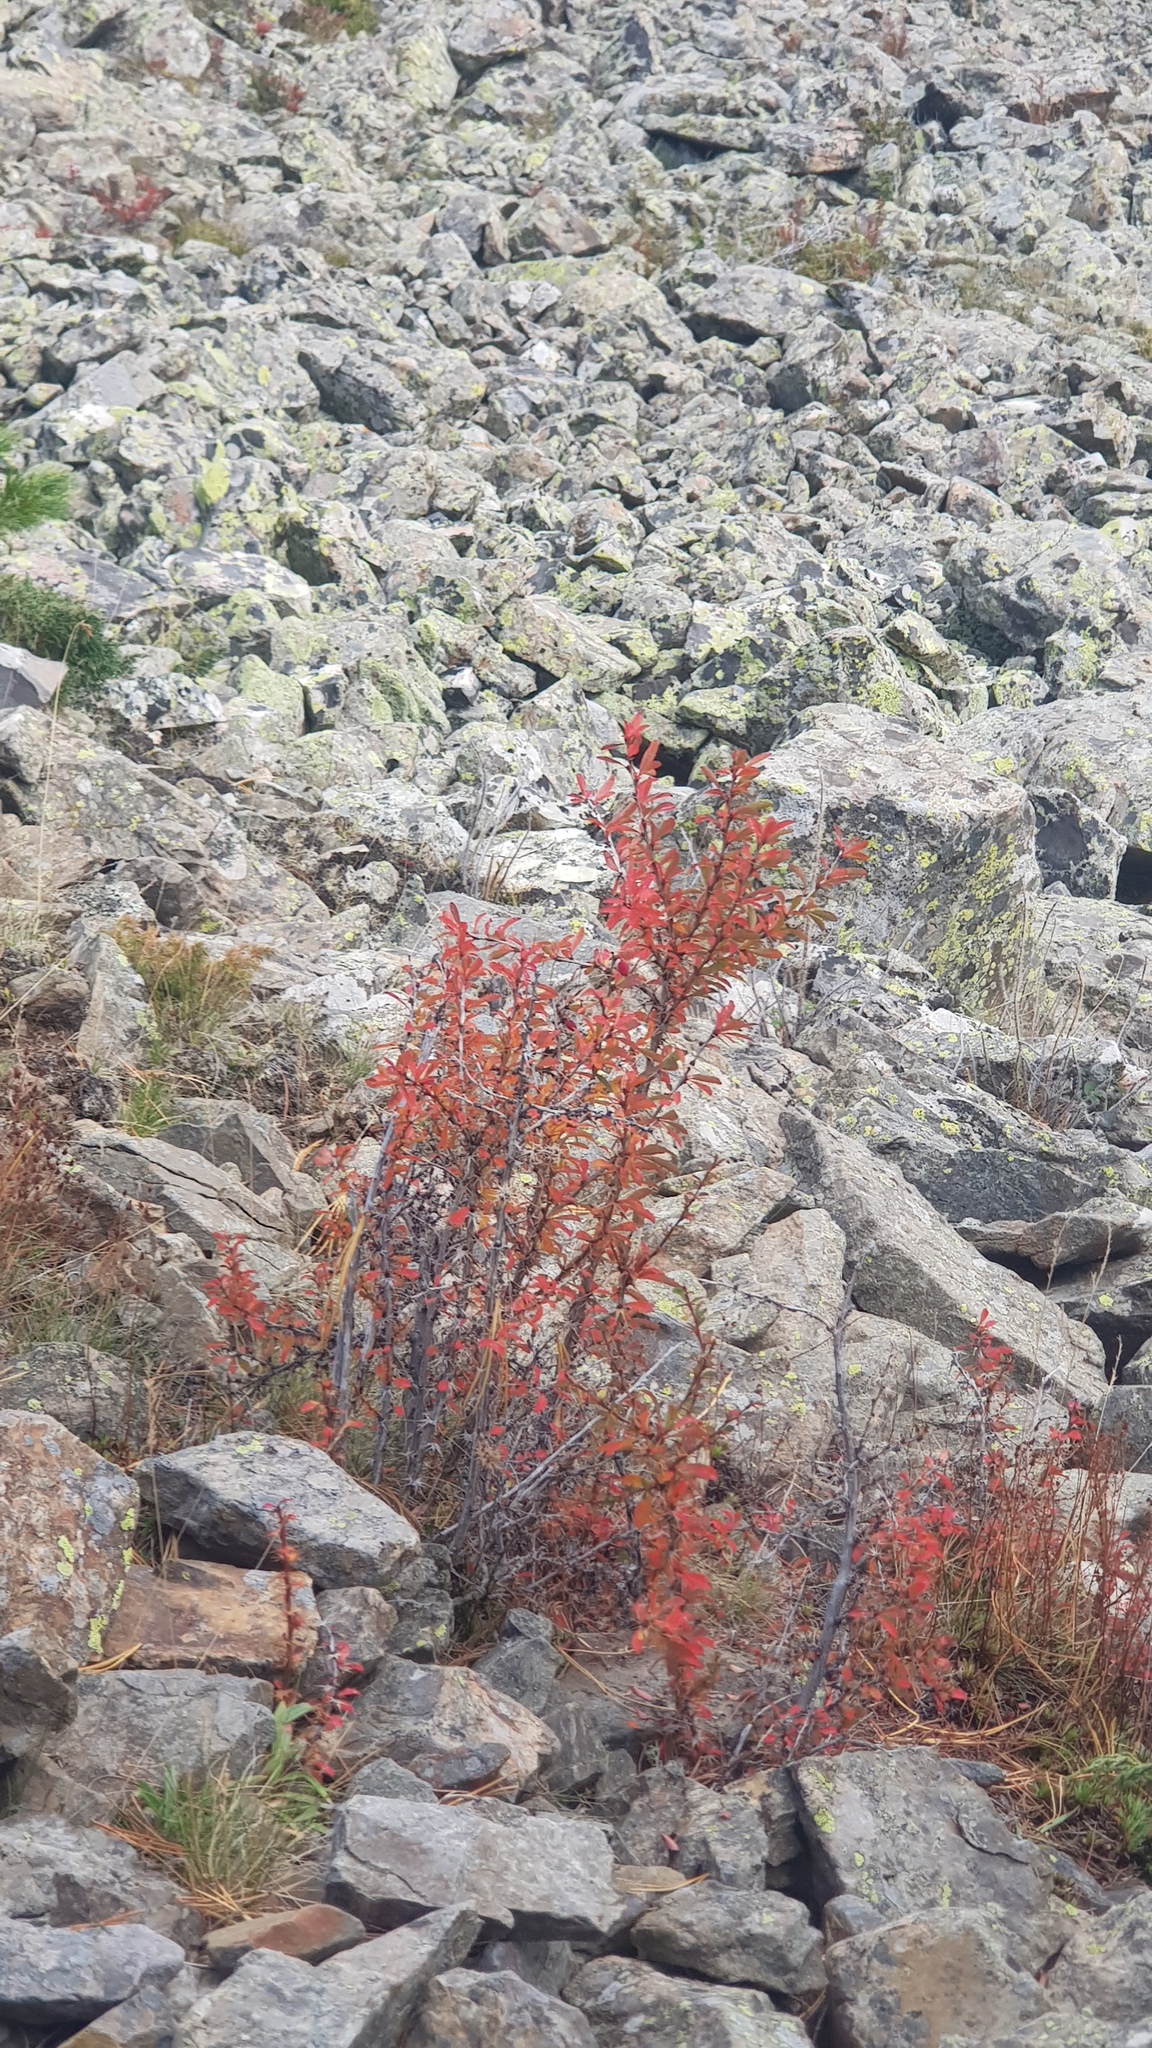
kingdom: Plantae
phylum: Tracheophyta
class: Magnoliopsida
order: Ranunculales
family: Berberidaceae
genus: Berberis
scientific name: Berberis sibirica
